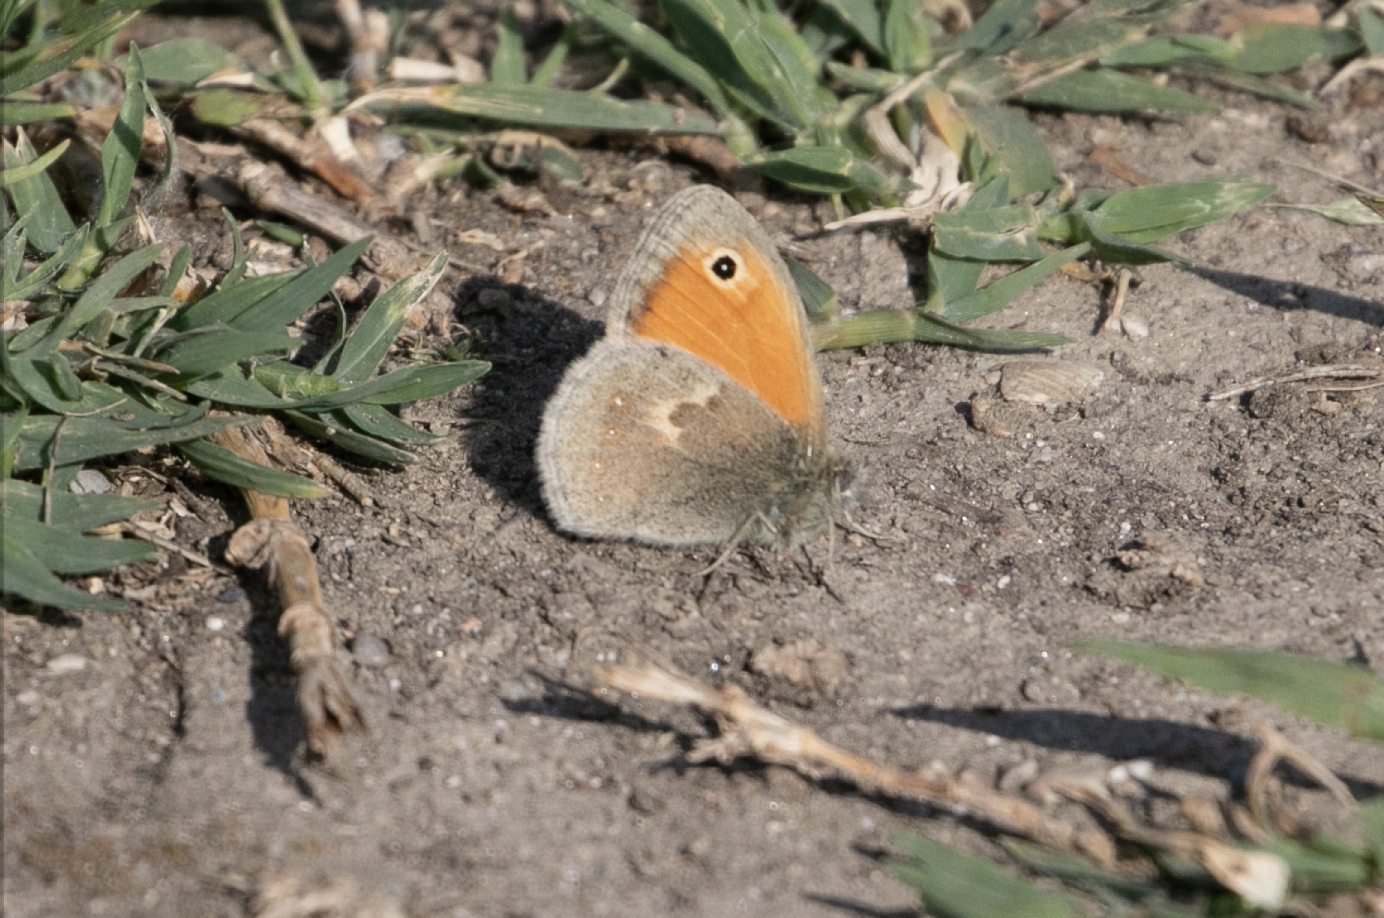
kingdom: Animalia
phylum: Arthropoda
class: Insecta
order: Lepidoptera
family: Nymphalidae
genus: Coenonympha
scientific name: Coenonympha pamphilus
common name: Small heath
